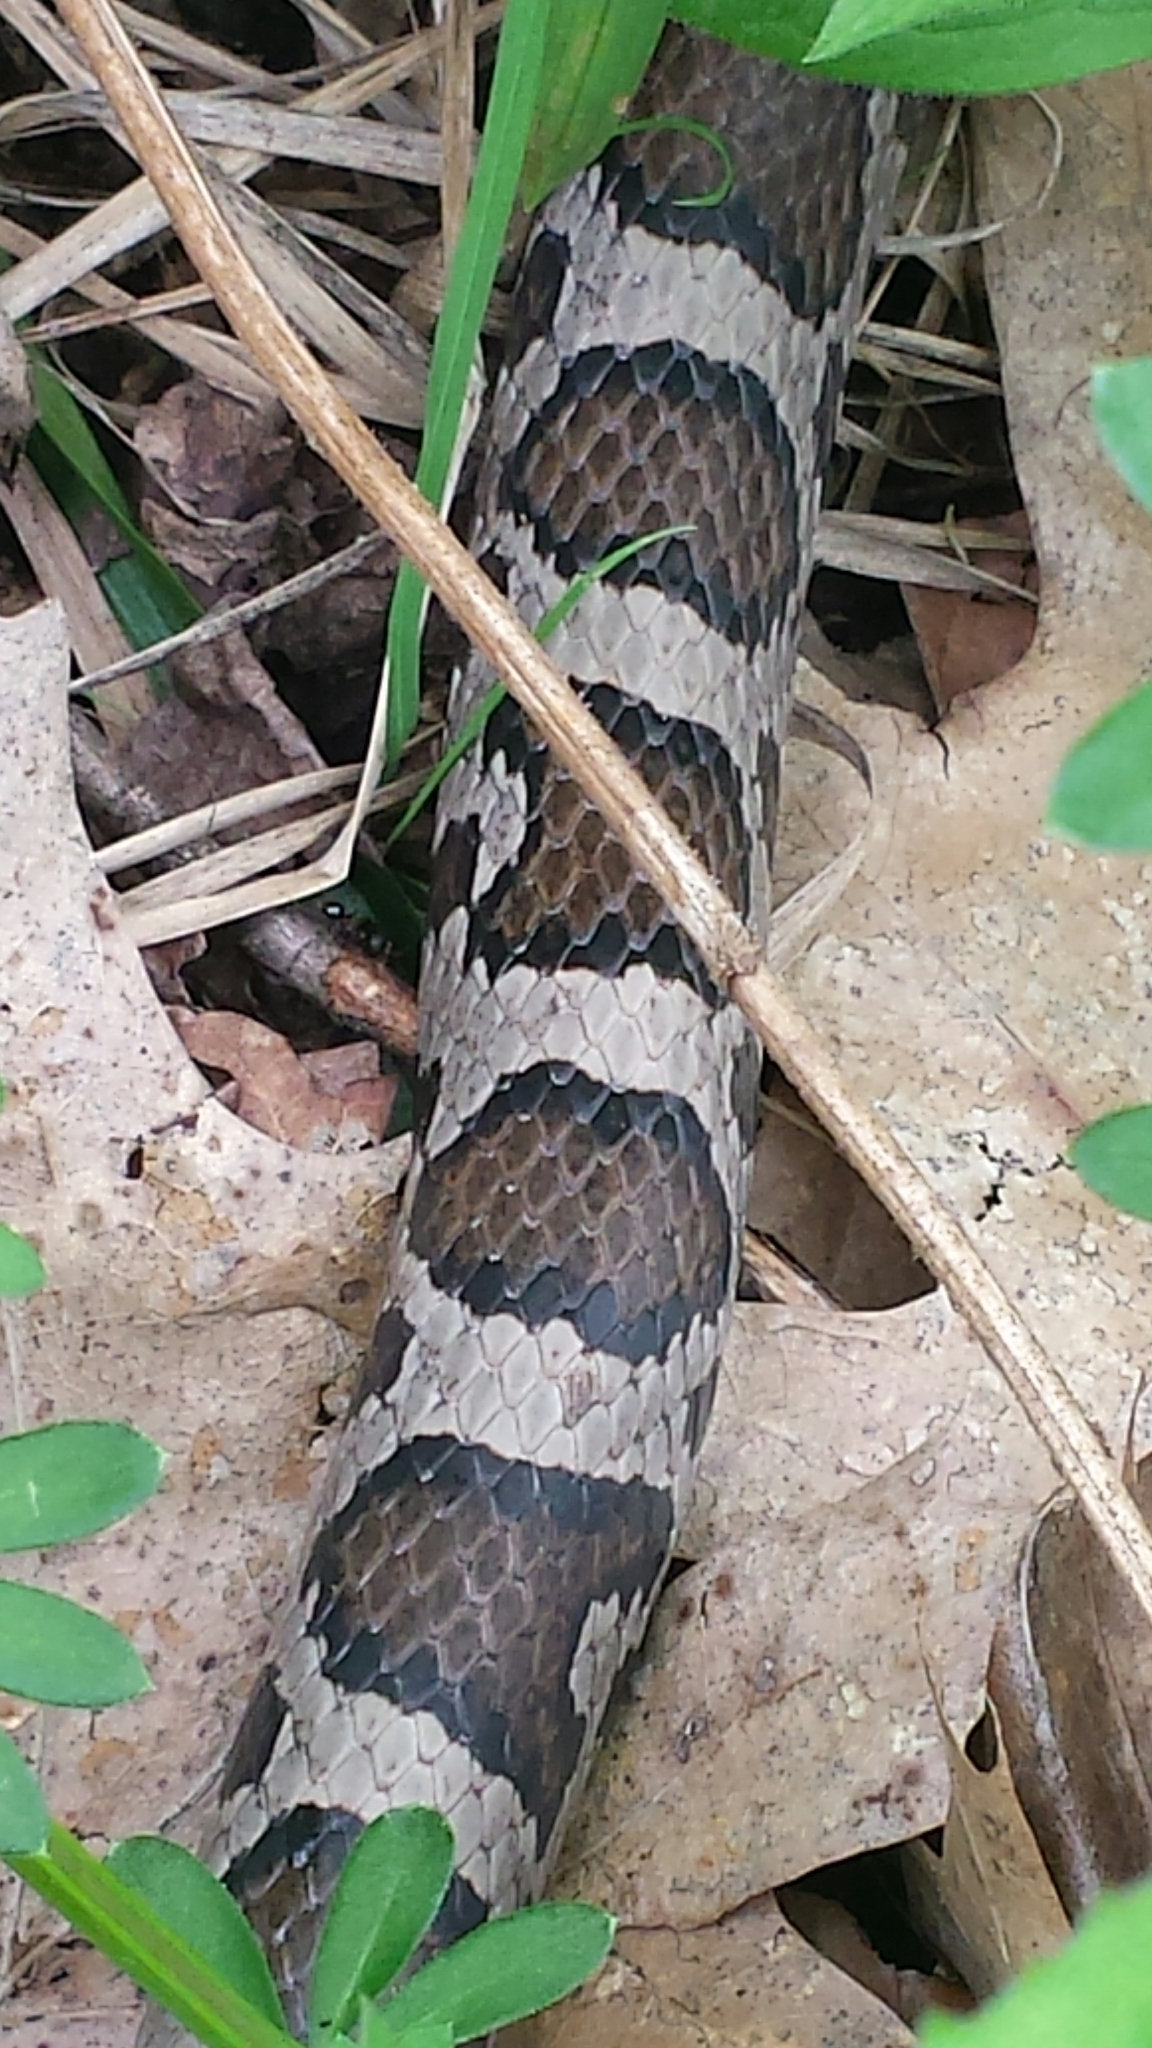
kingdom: Animalia
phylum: Chordata
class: Squamata
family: Colubridae
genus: Lampropeltis
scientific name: Lampropeltis triangulum
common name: Eastern milksnake
